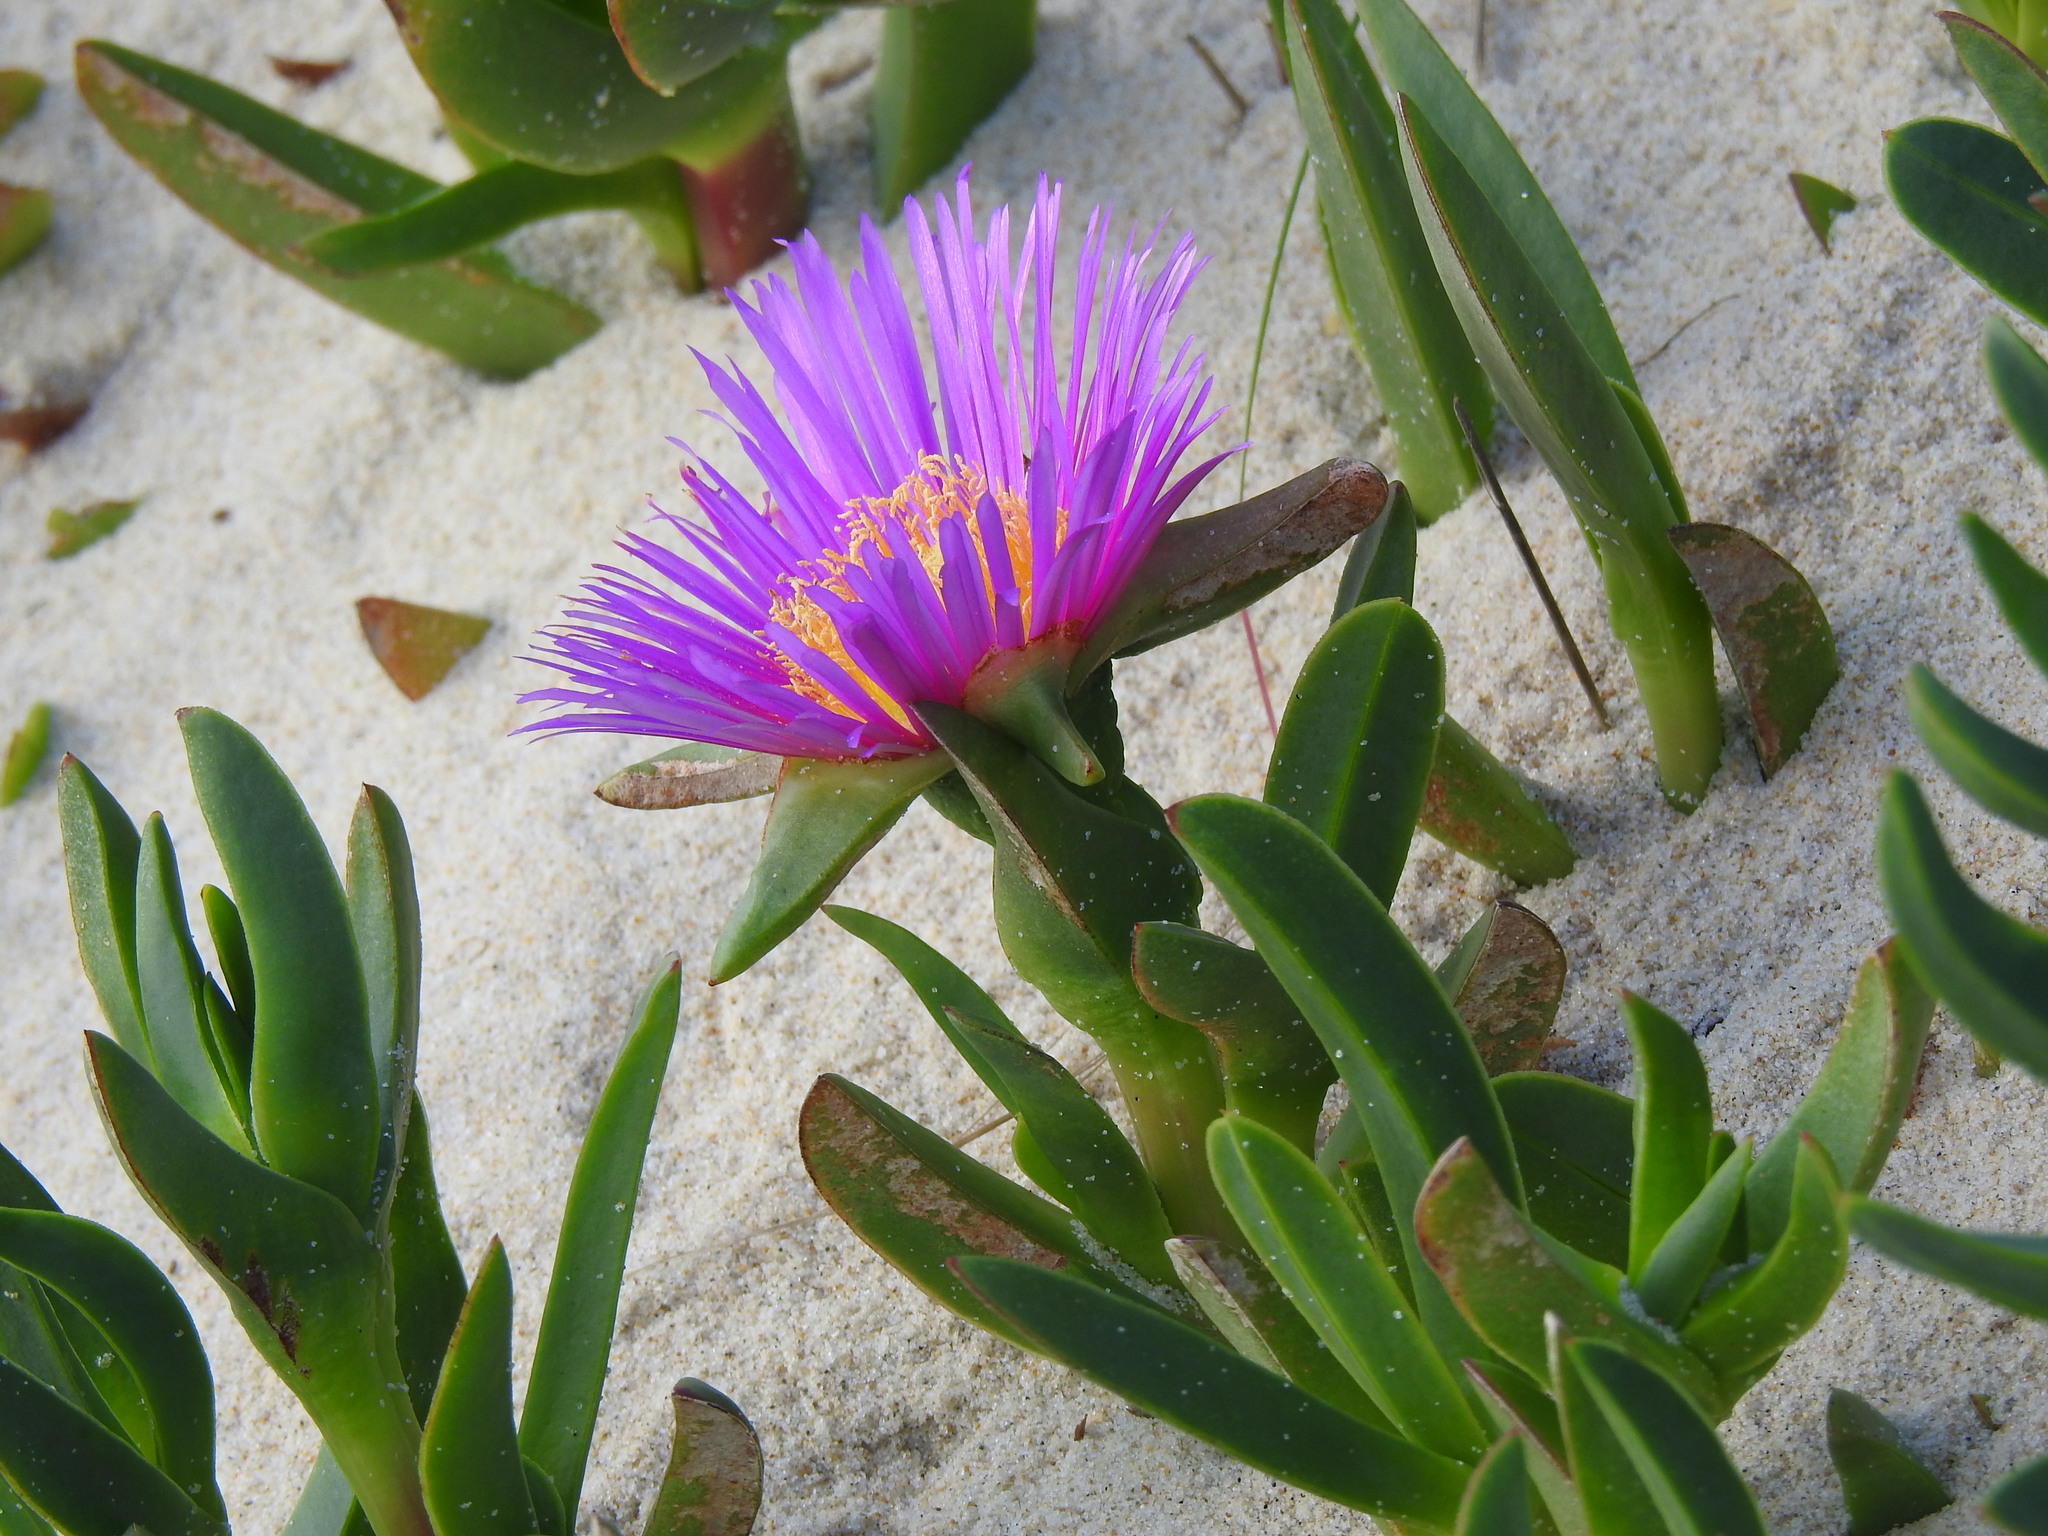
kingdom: Plantae
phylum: Tracheophyta
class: Magnoliopsida
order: Caryophyllales
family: Aizoaceae
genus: Carpobrotus
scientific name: Carpobrotus acinaciformis
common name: Sally-my-handsome
